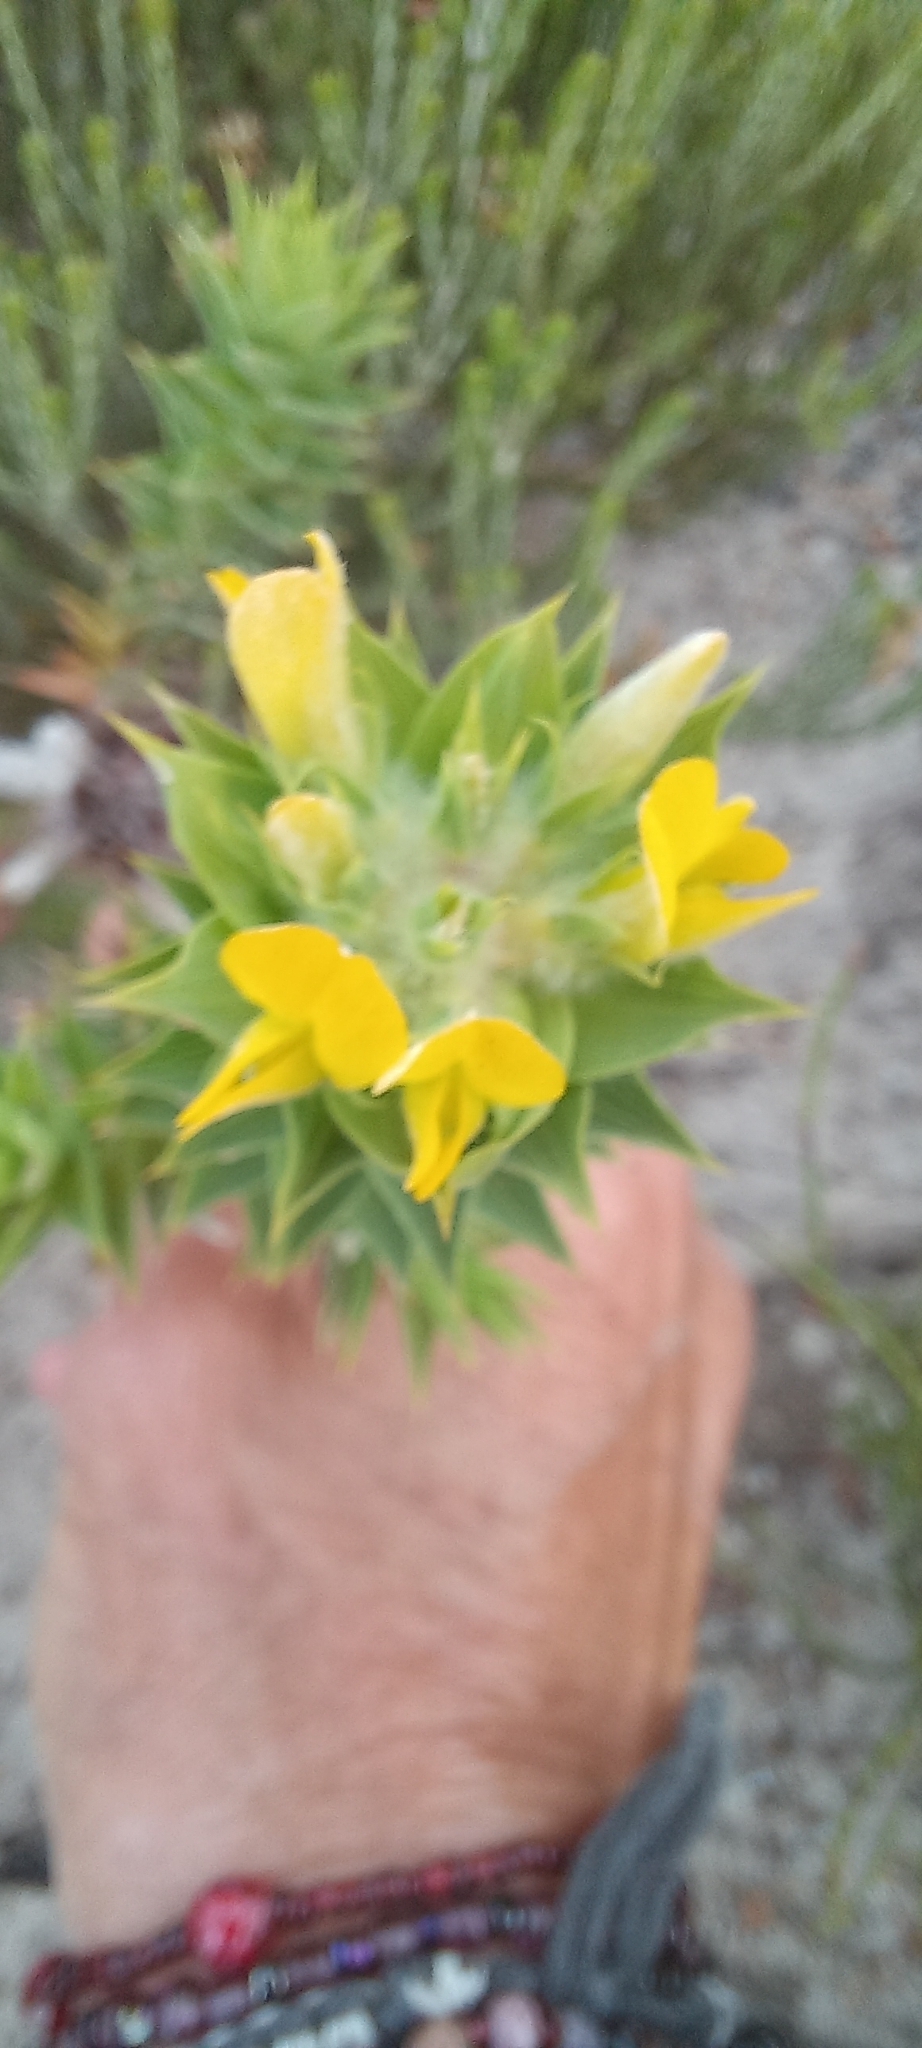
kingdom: Plantae
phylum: Tracheophyta
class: Magnoliopsida
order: Fabales
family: Fabaceae
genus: Aspalathus
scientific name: Aspalathus cordata
